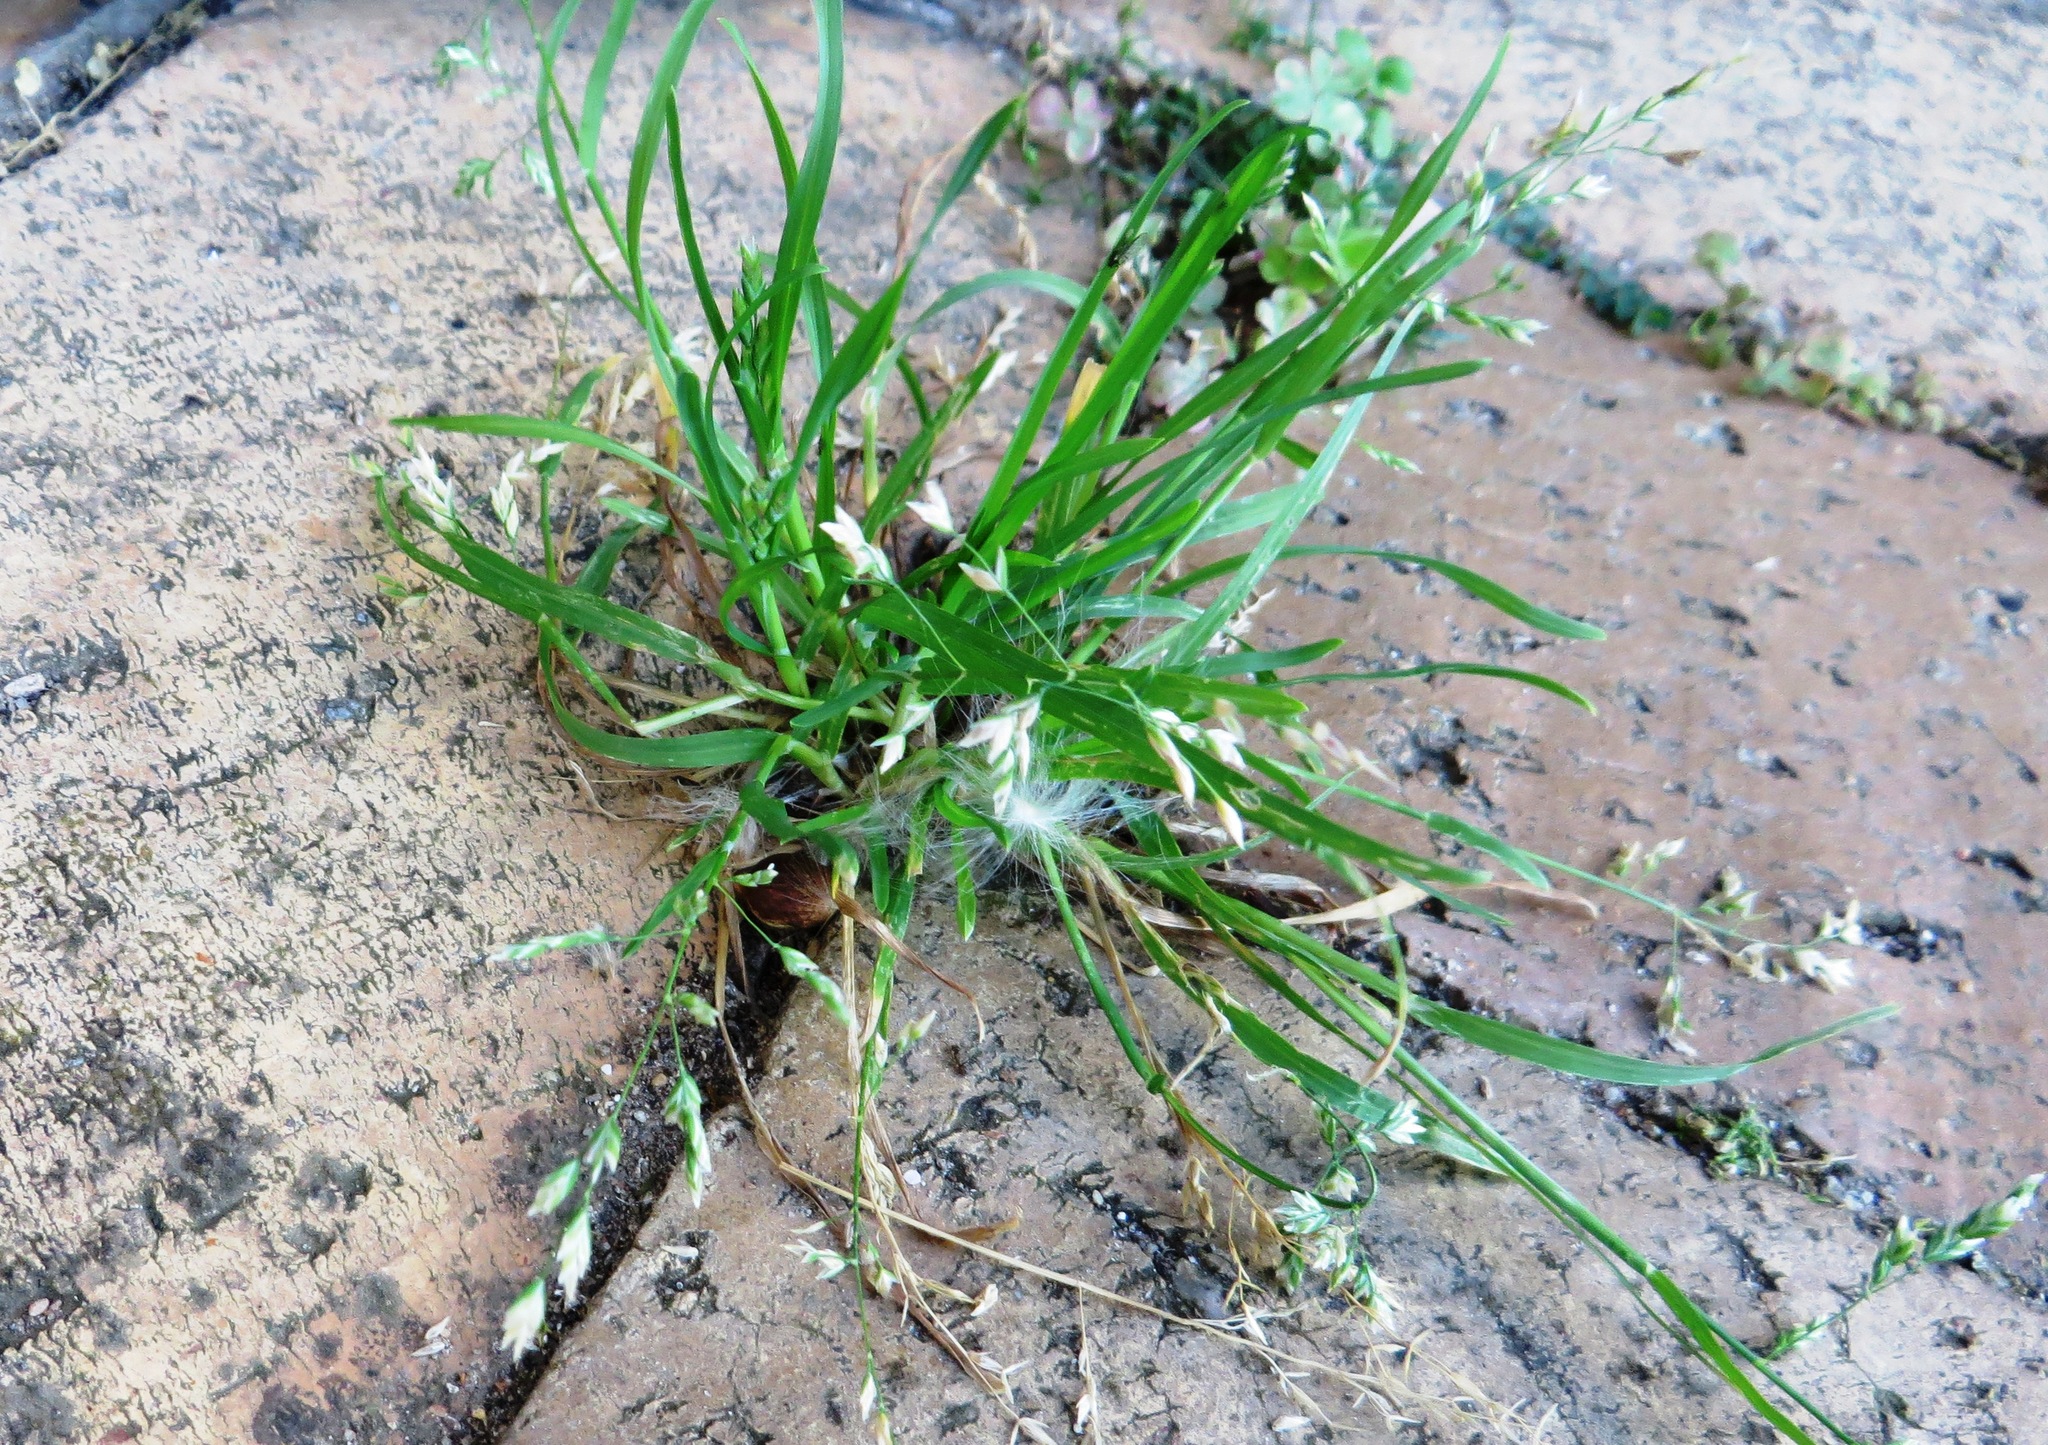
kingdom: Plantae
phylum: Tracheophyta
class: Liliopsida
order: Poales
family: Poaceae
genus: Poa
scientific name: Poa annua
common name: Annual bluegrass
